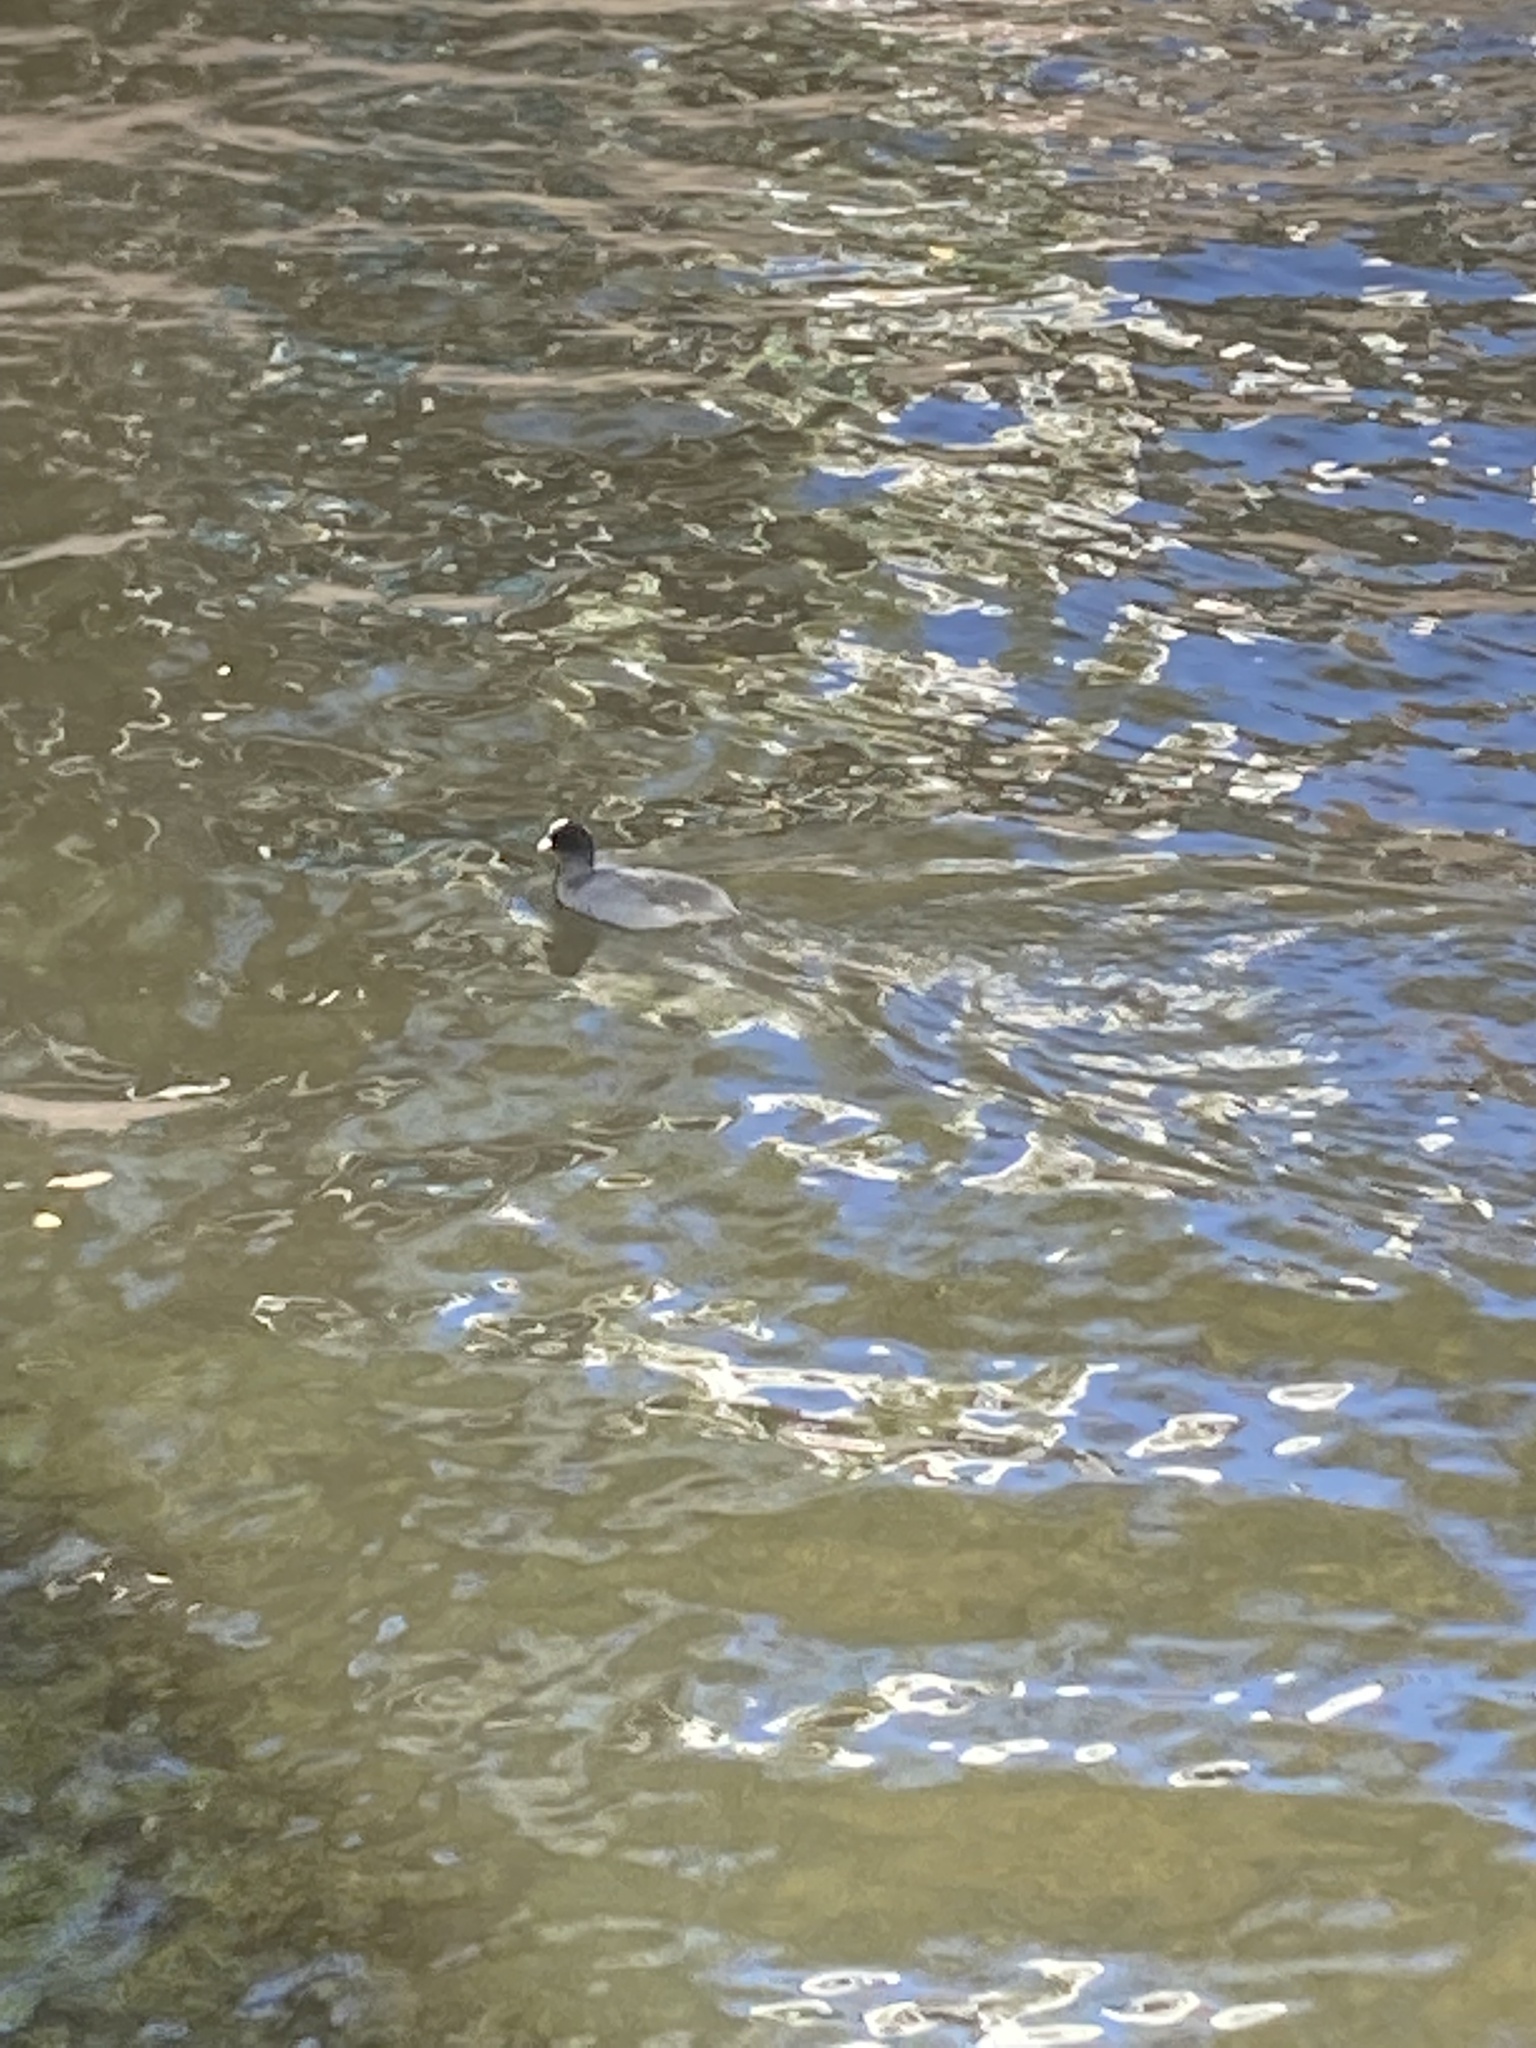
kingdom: Animalia
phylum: Chordata
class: Aves
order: Gruiformes
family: Rallidae
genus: Fulica
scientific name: Fulica atra
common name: Eurasian coot
